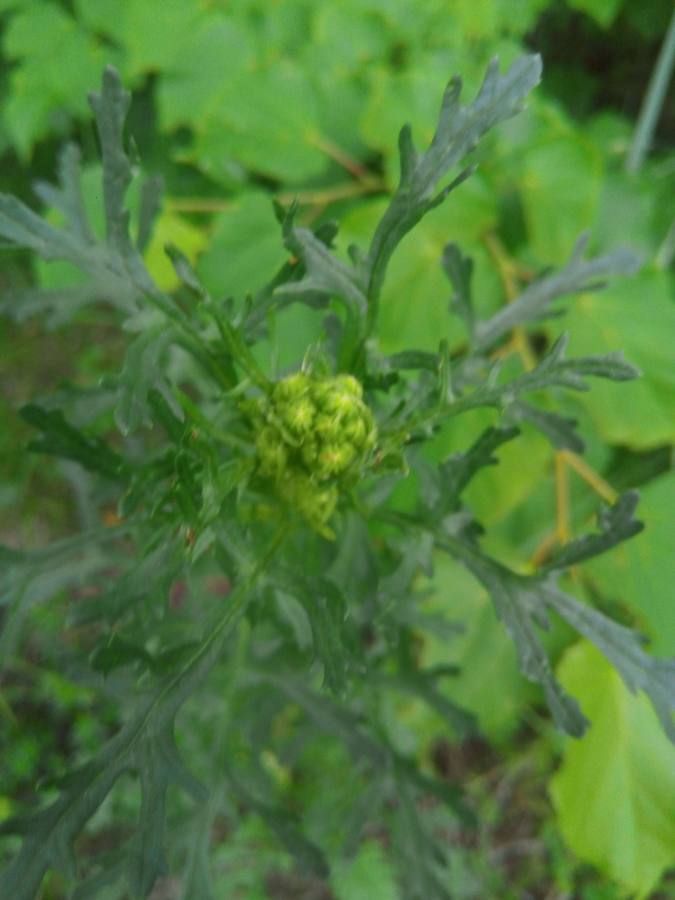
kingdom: Plantae
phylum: Tracheophyta
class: Magnoliopsida
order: Asterales
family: Asteraceae
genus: Jacobaea
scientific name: Jacobaea vulgaris
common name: Stinking willie
